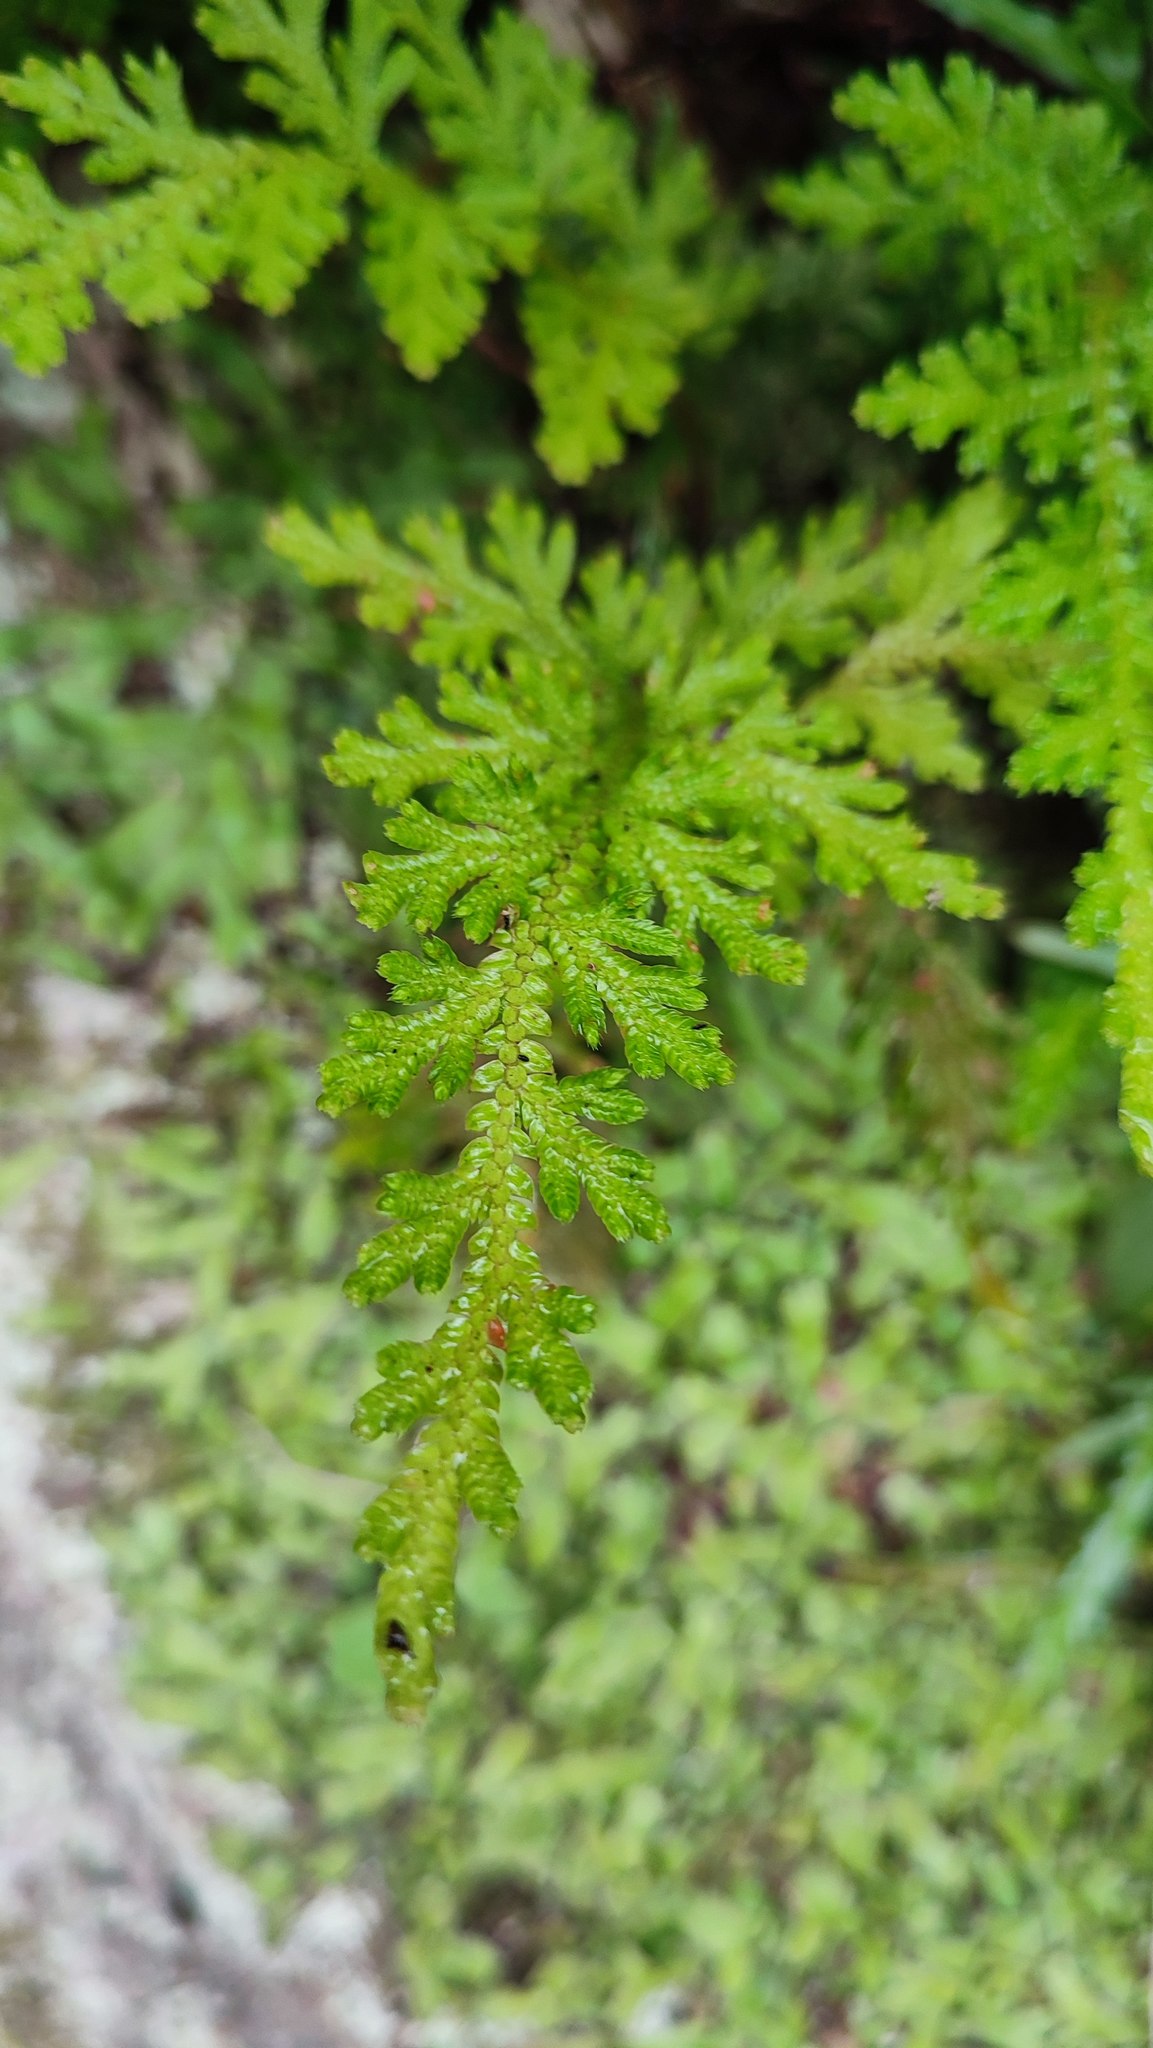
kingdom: Plantae
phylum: Tracheophyta
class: Lycopodiopsida
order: Selaginellales
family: Selaginellaceae
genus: Selaginella
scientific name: Selaginella moellendorffii
